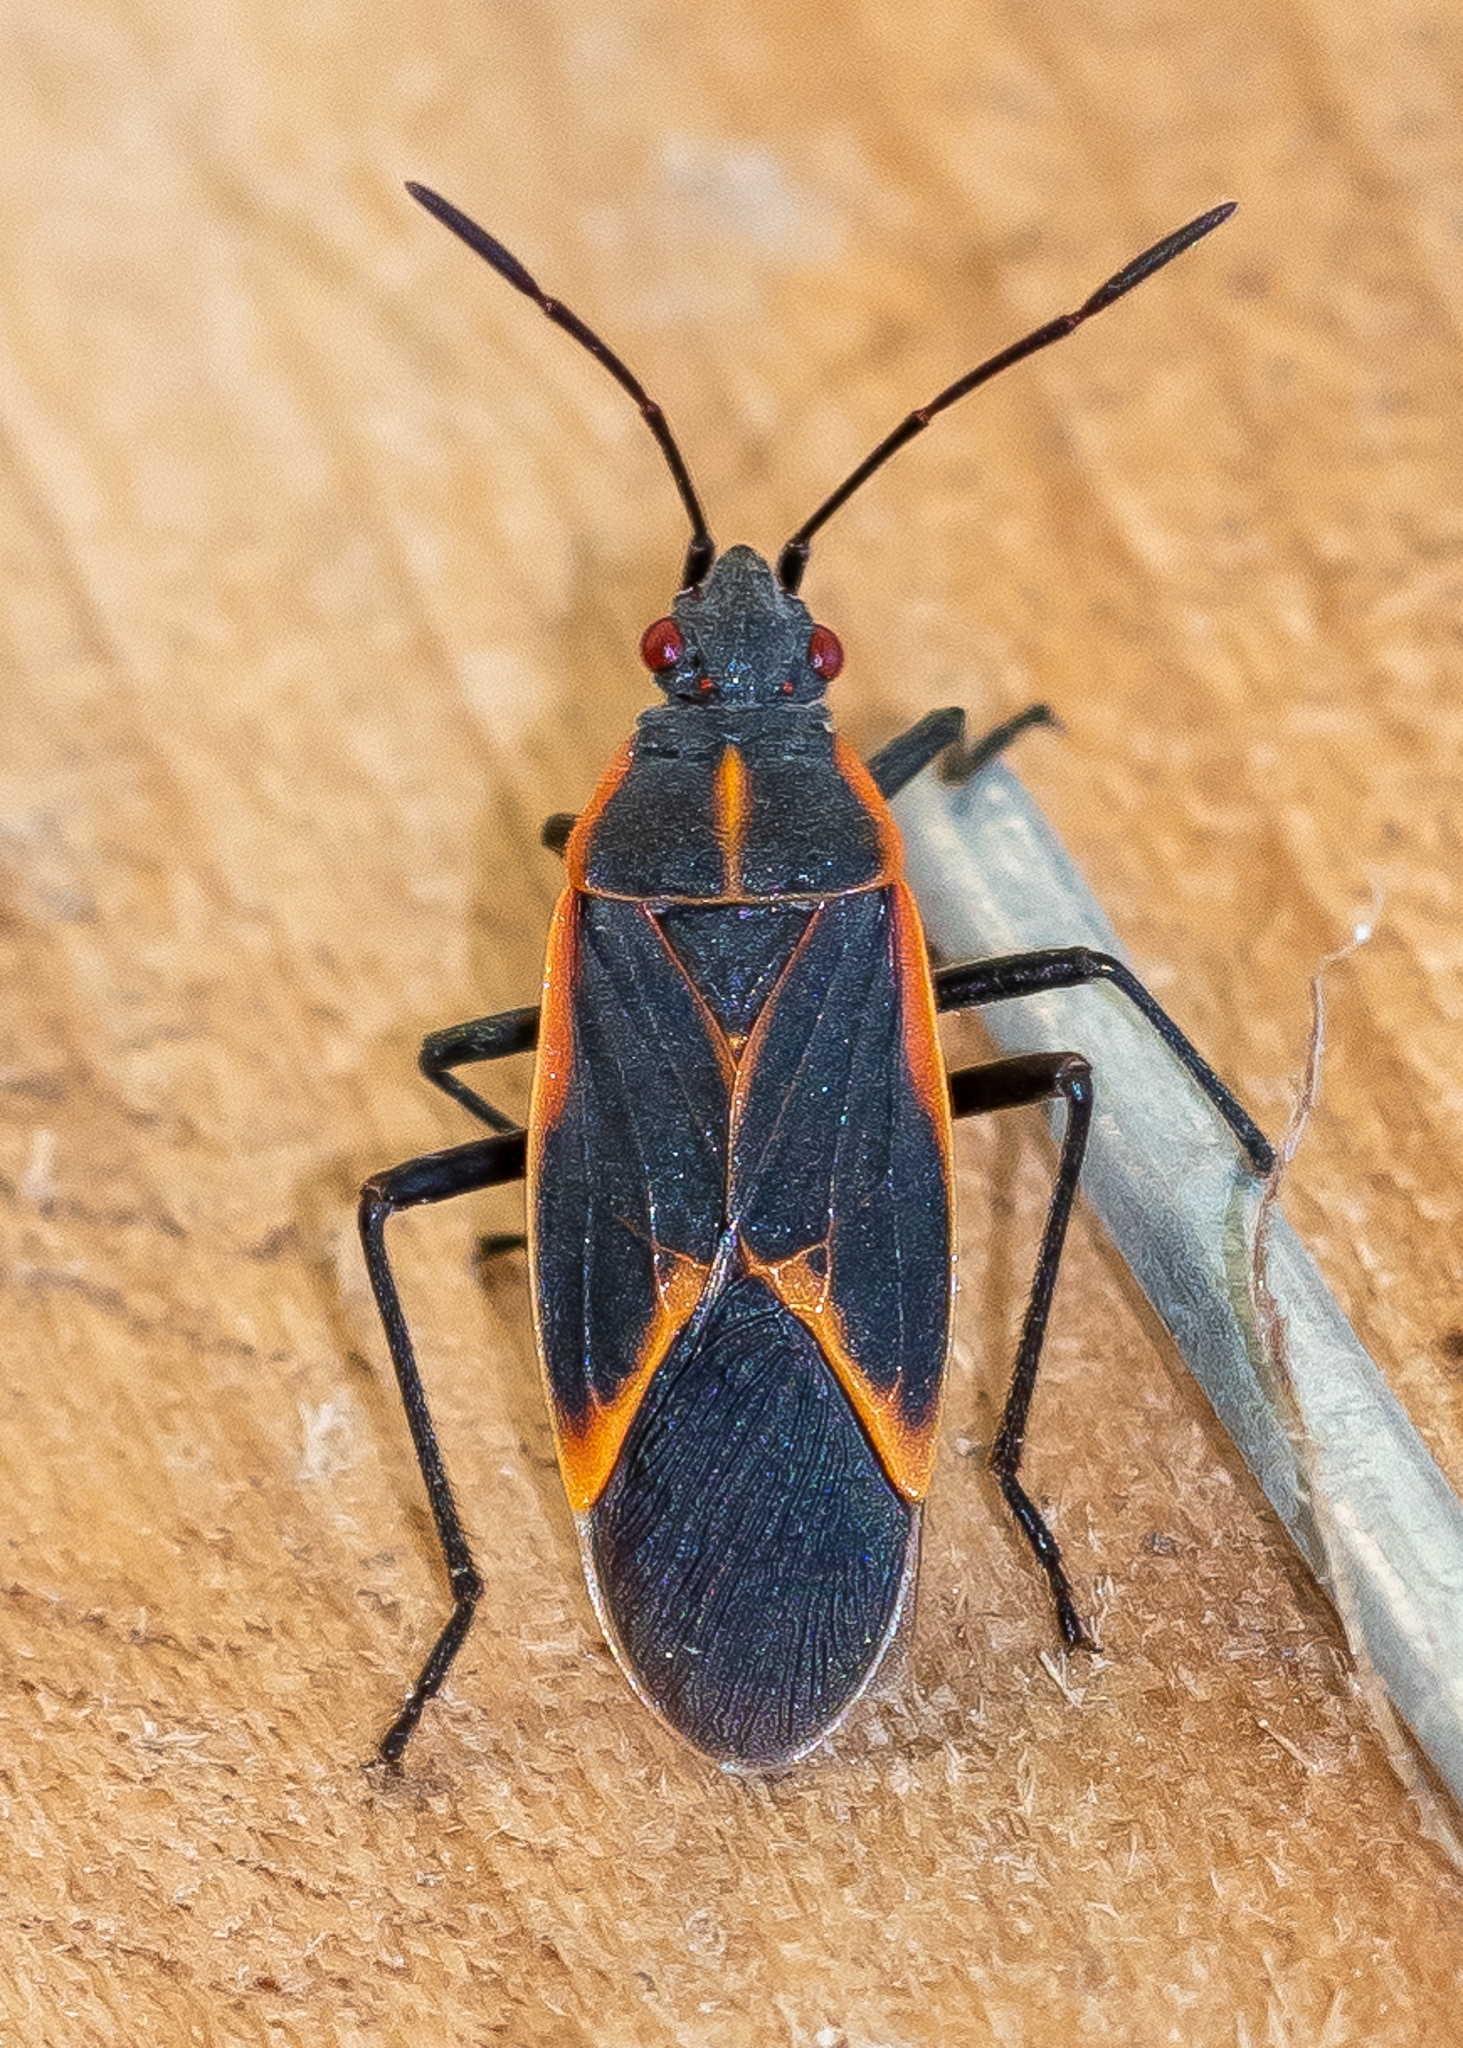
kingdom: Animalia
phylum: Arthropoda
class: Insecta
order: Hemiptera
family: Rhopalidae
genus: Boisea
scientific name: Boisea trivittata
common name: Boxelder bug
